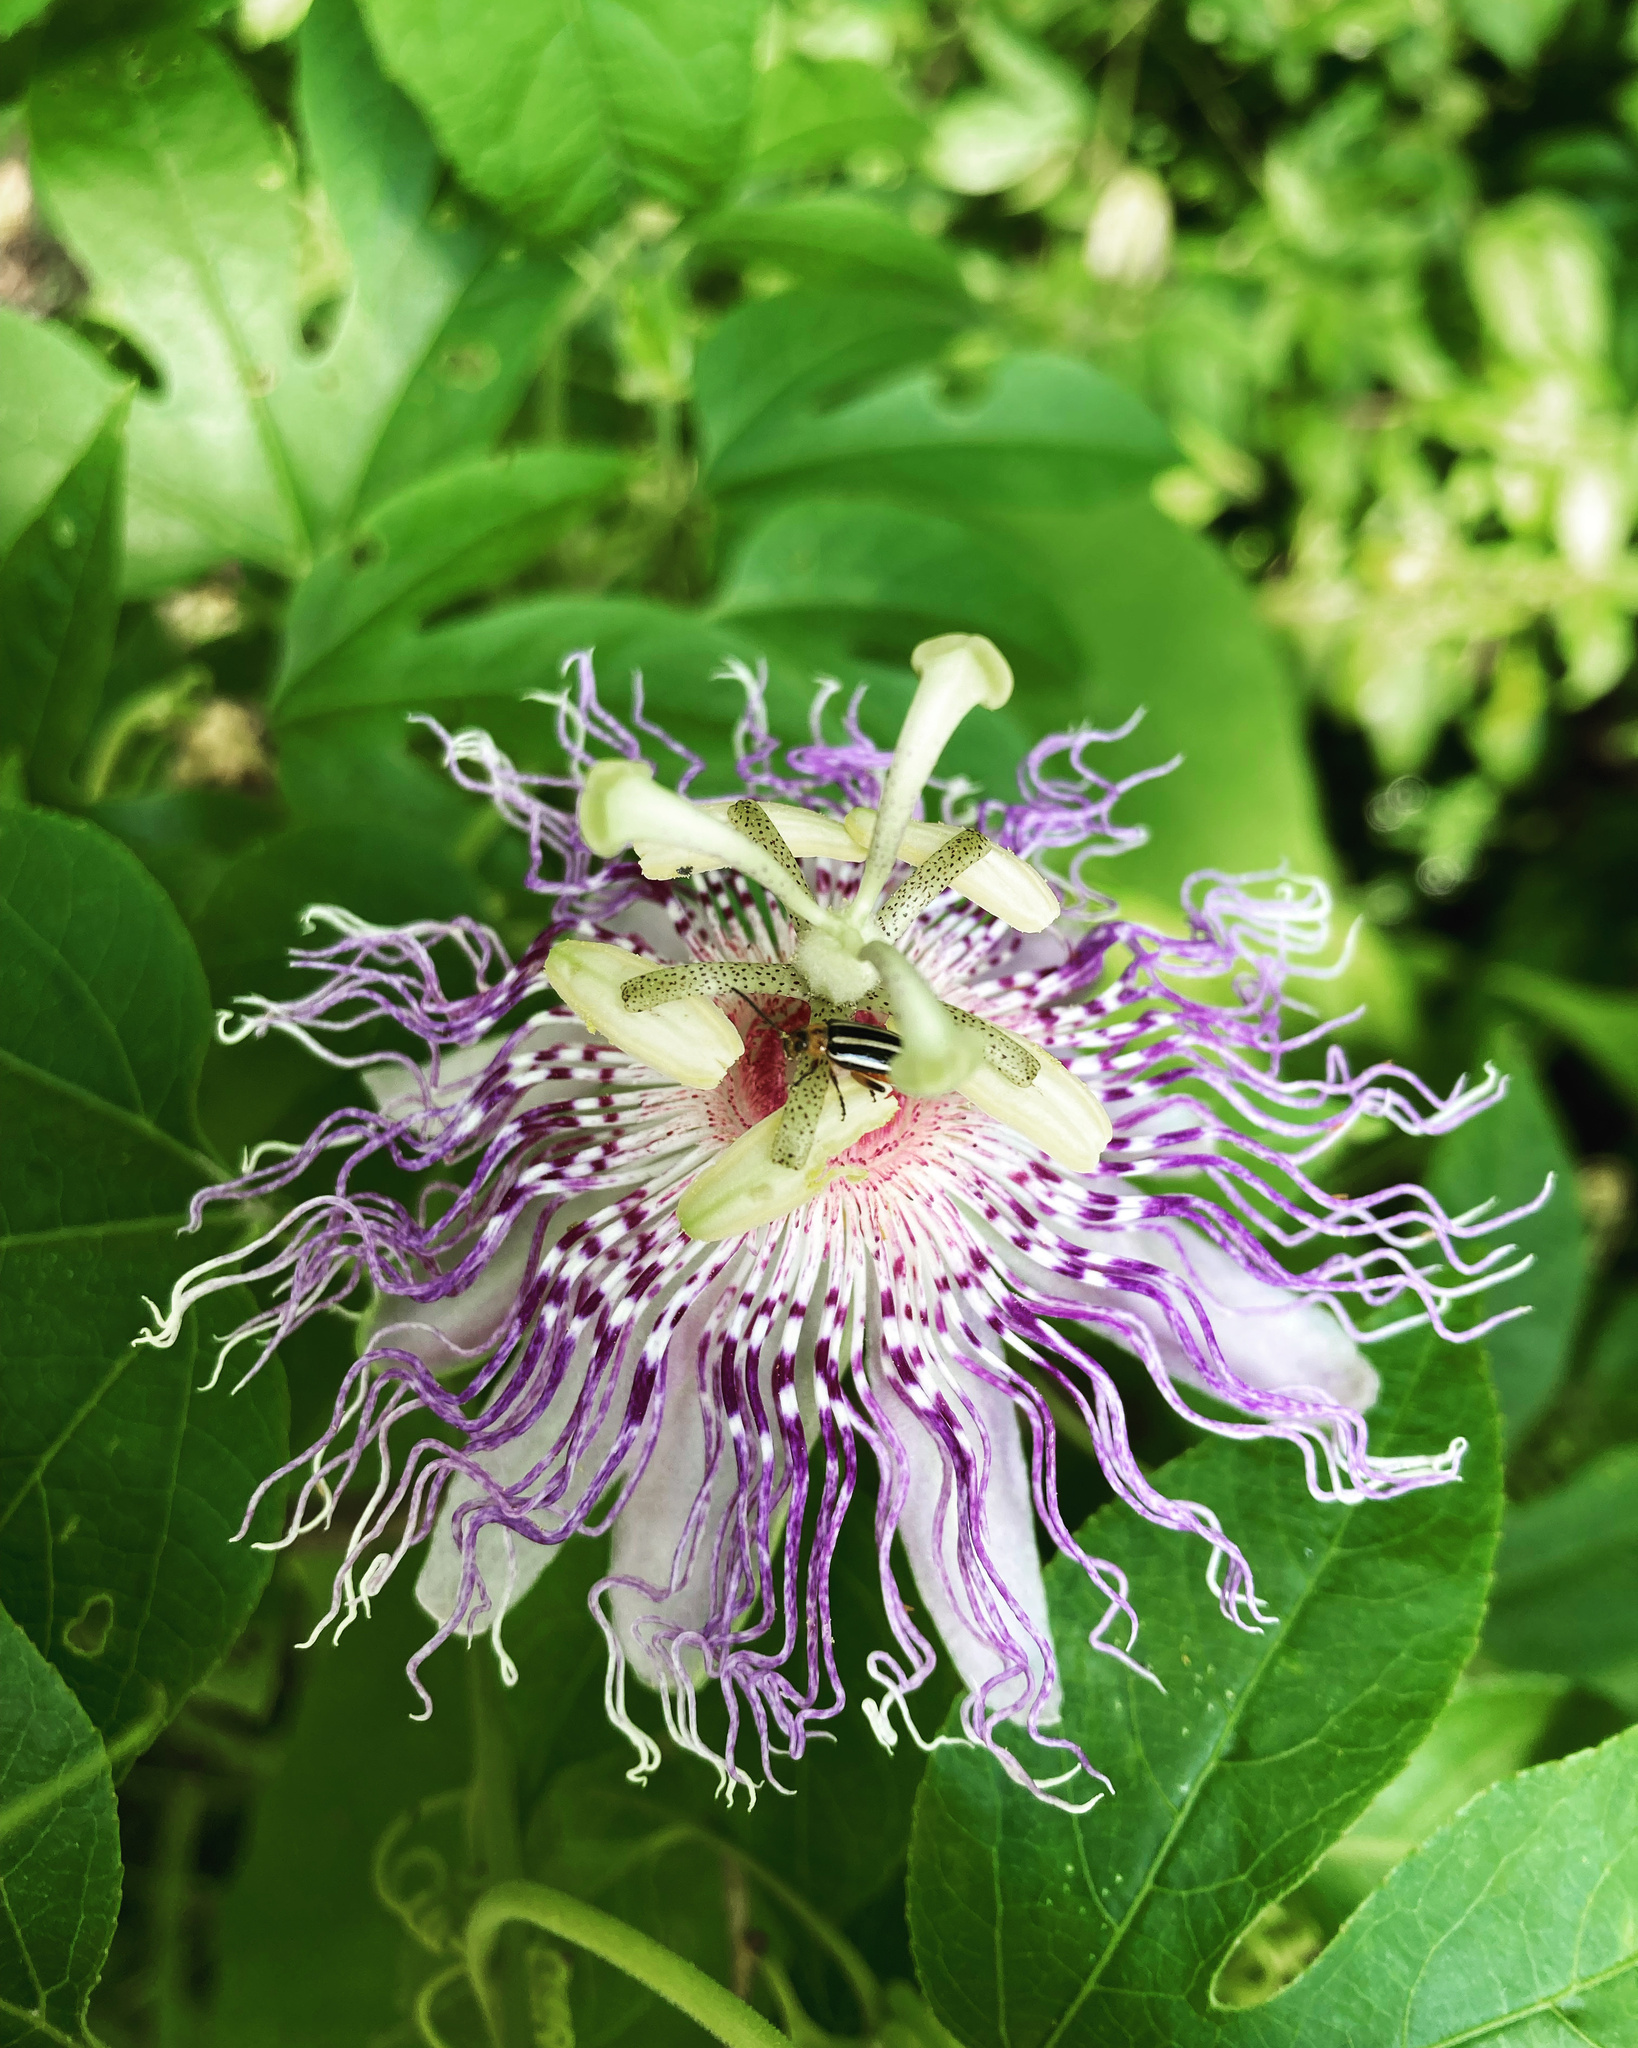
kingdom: Plantae
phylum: Tracheophyta
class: Magnoliopsida
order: Malpighiales
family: Passifloraceae
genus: Passiflora
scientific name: Passiflora incarnata
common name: Apricot-vine
